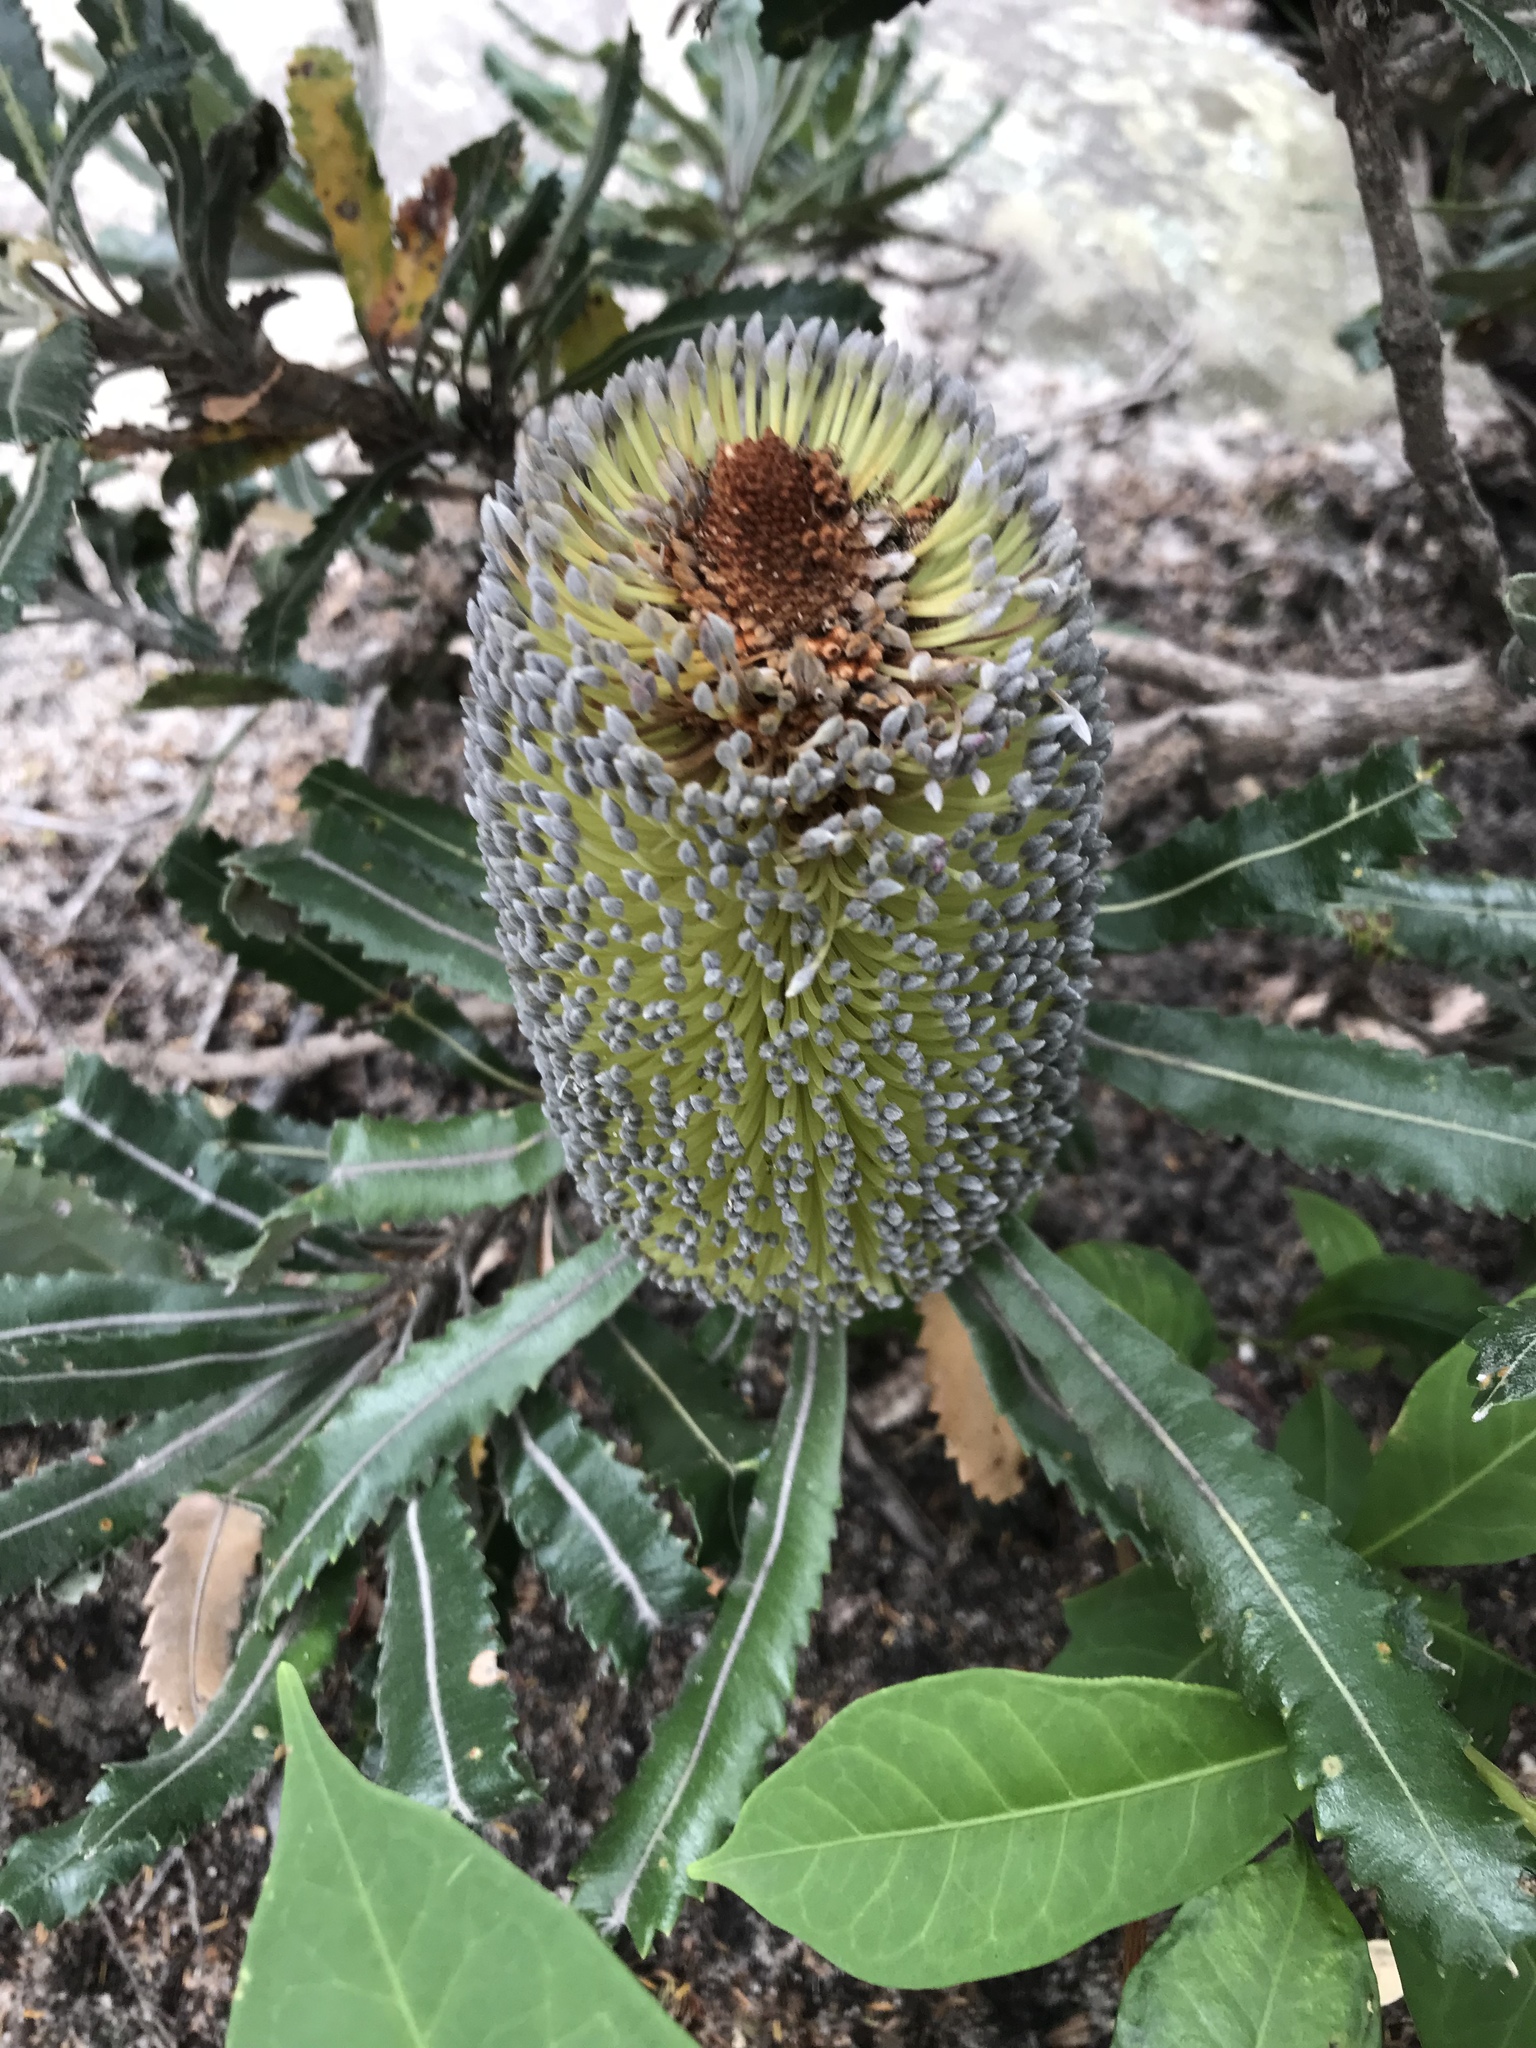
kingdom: Plantae
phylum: Tracheophyta
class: Magnoliopsida
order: Proteales
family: Proteaceae
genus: Banksia
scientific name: Banksia serrata
